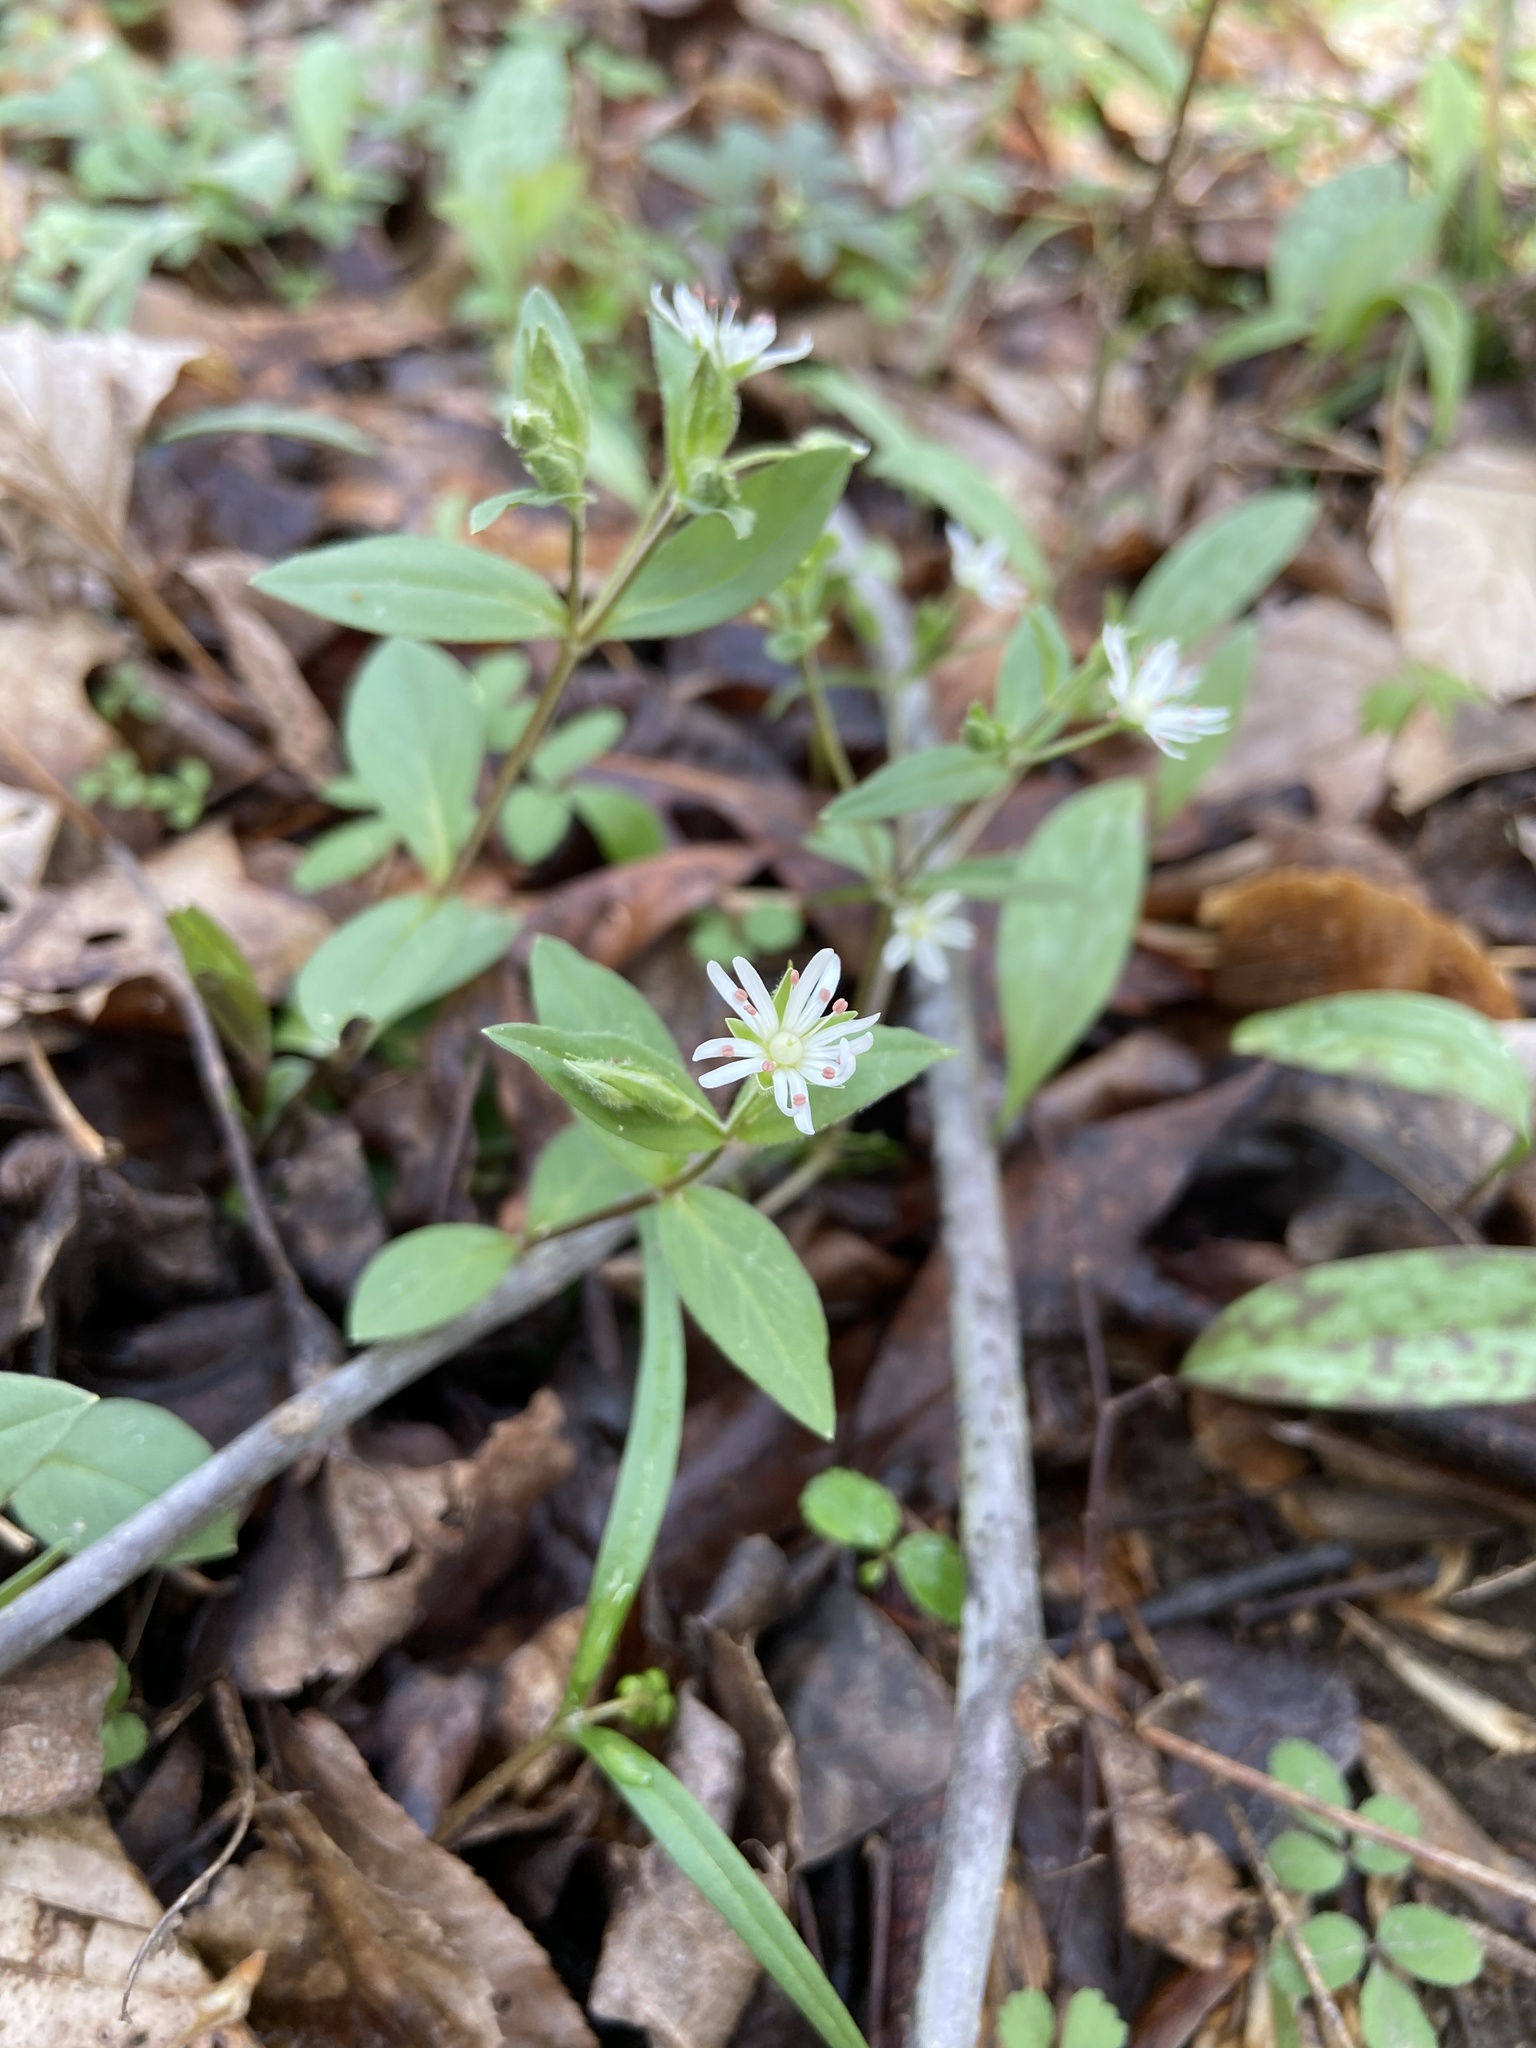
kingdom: Plantae
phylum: Tracheophyta
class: Magnoliopsida
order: Caryophyllales
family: Caryophyllaceae
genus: Stellaria
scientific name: Stellaria pubera
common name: Star chickweed
